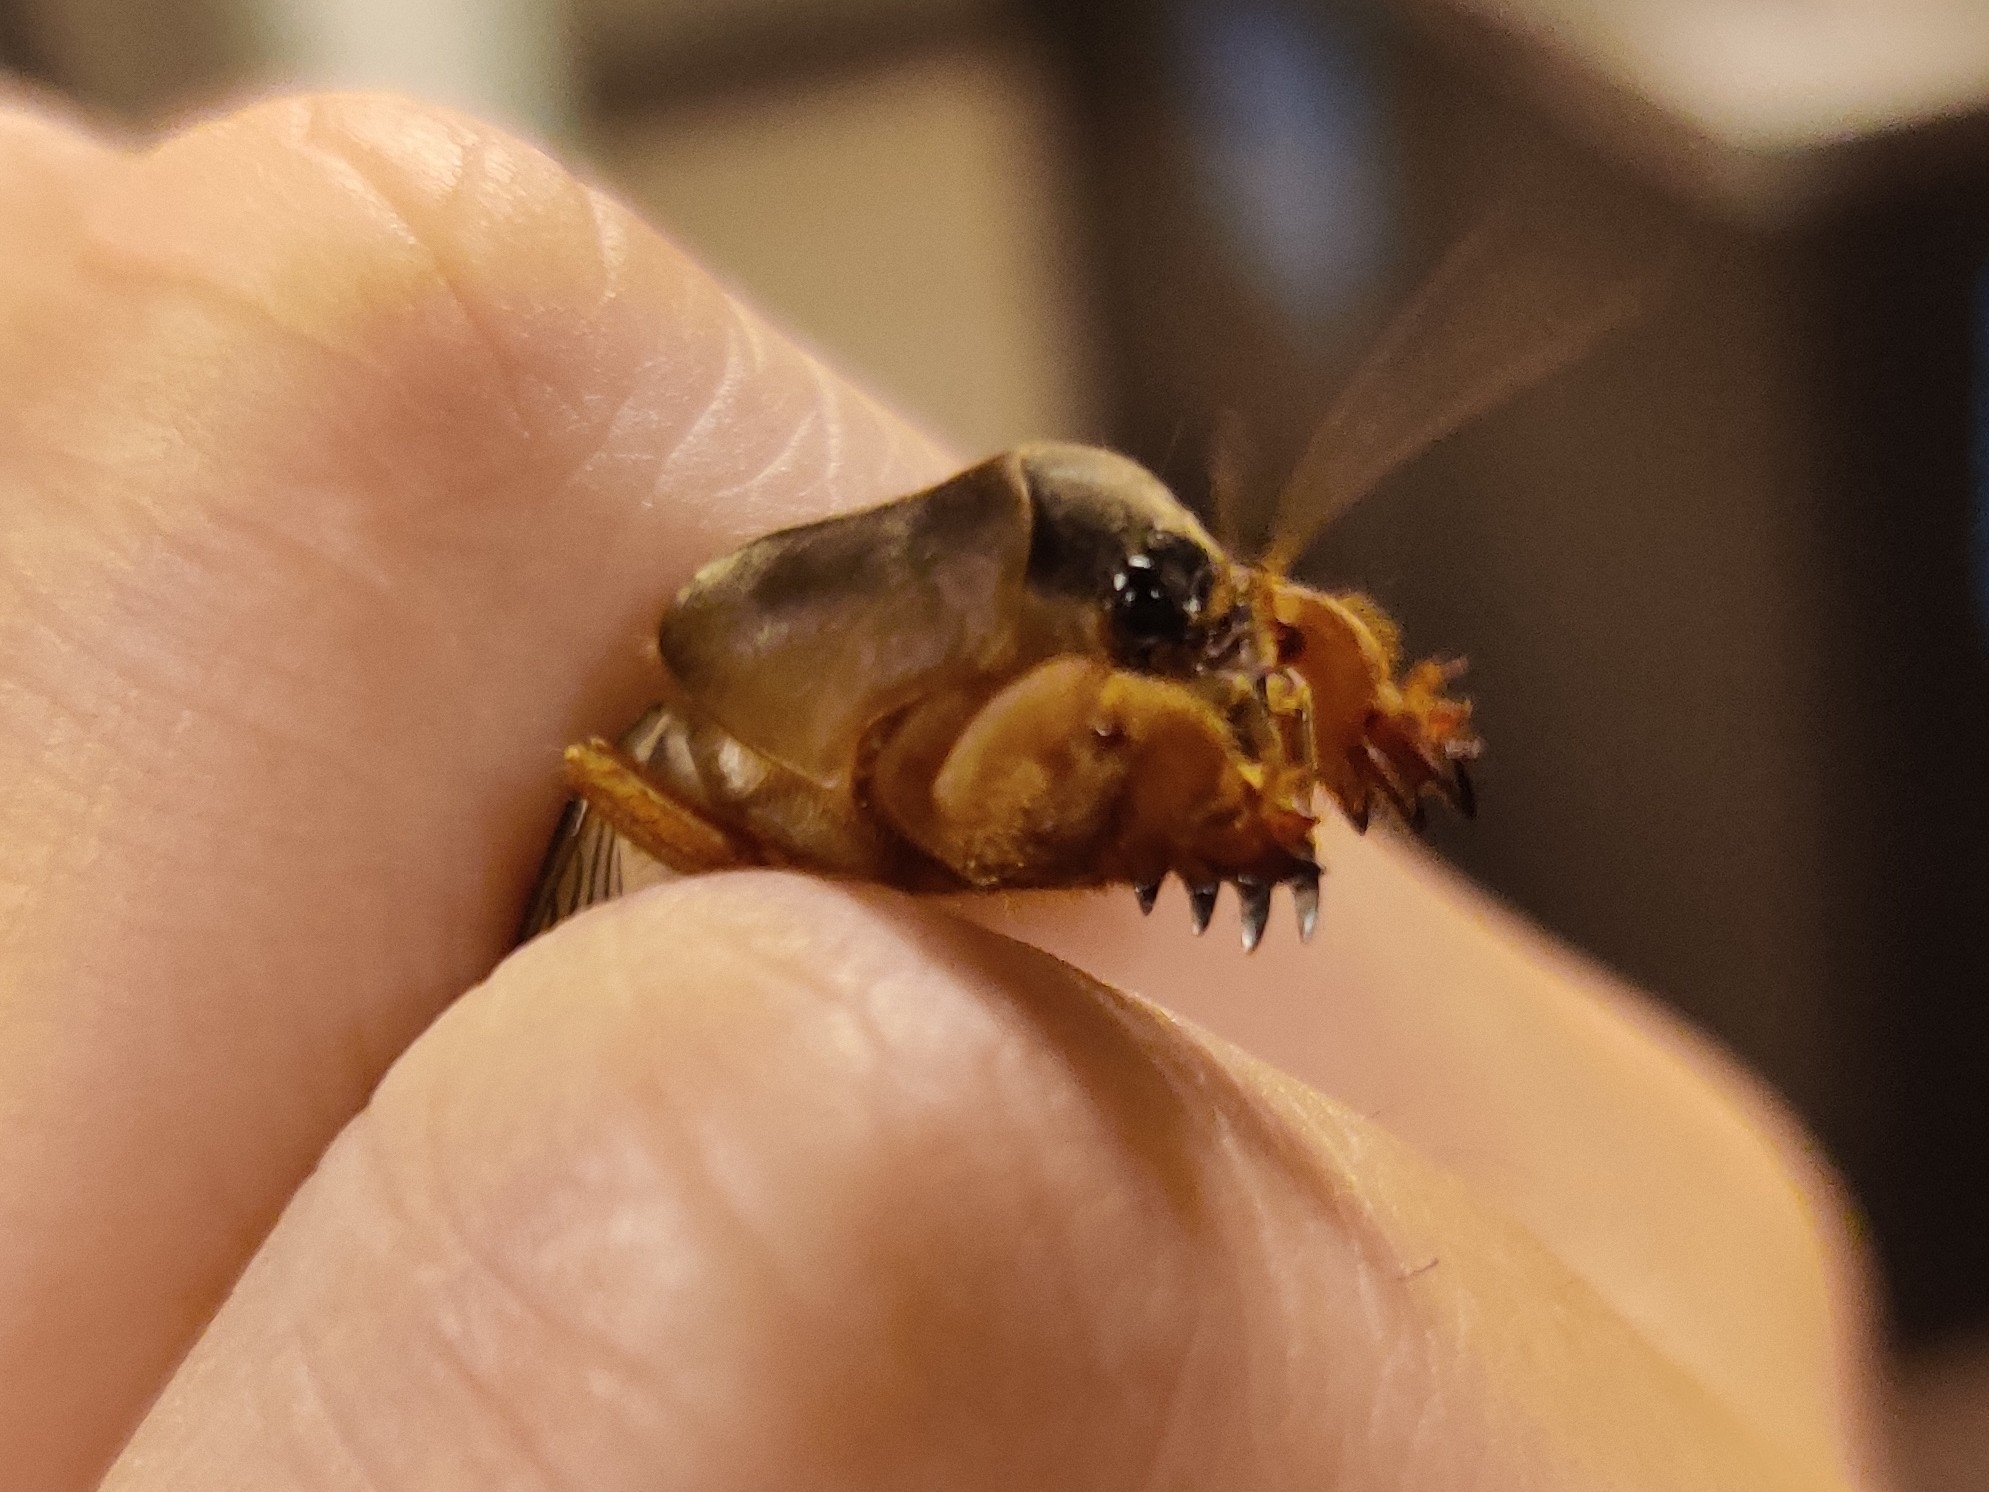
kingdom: Animalia
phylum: Arthropoda
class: Insecta
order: Orthoptera
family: Gryllotalpidae
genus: Gryllotalpa
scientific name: Gryllotalpa australis
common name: Southern mole cricket
